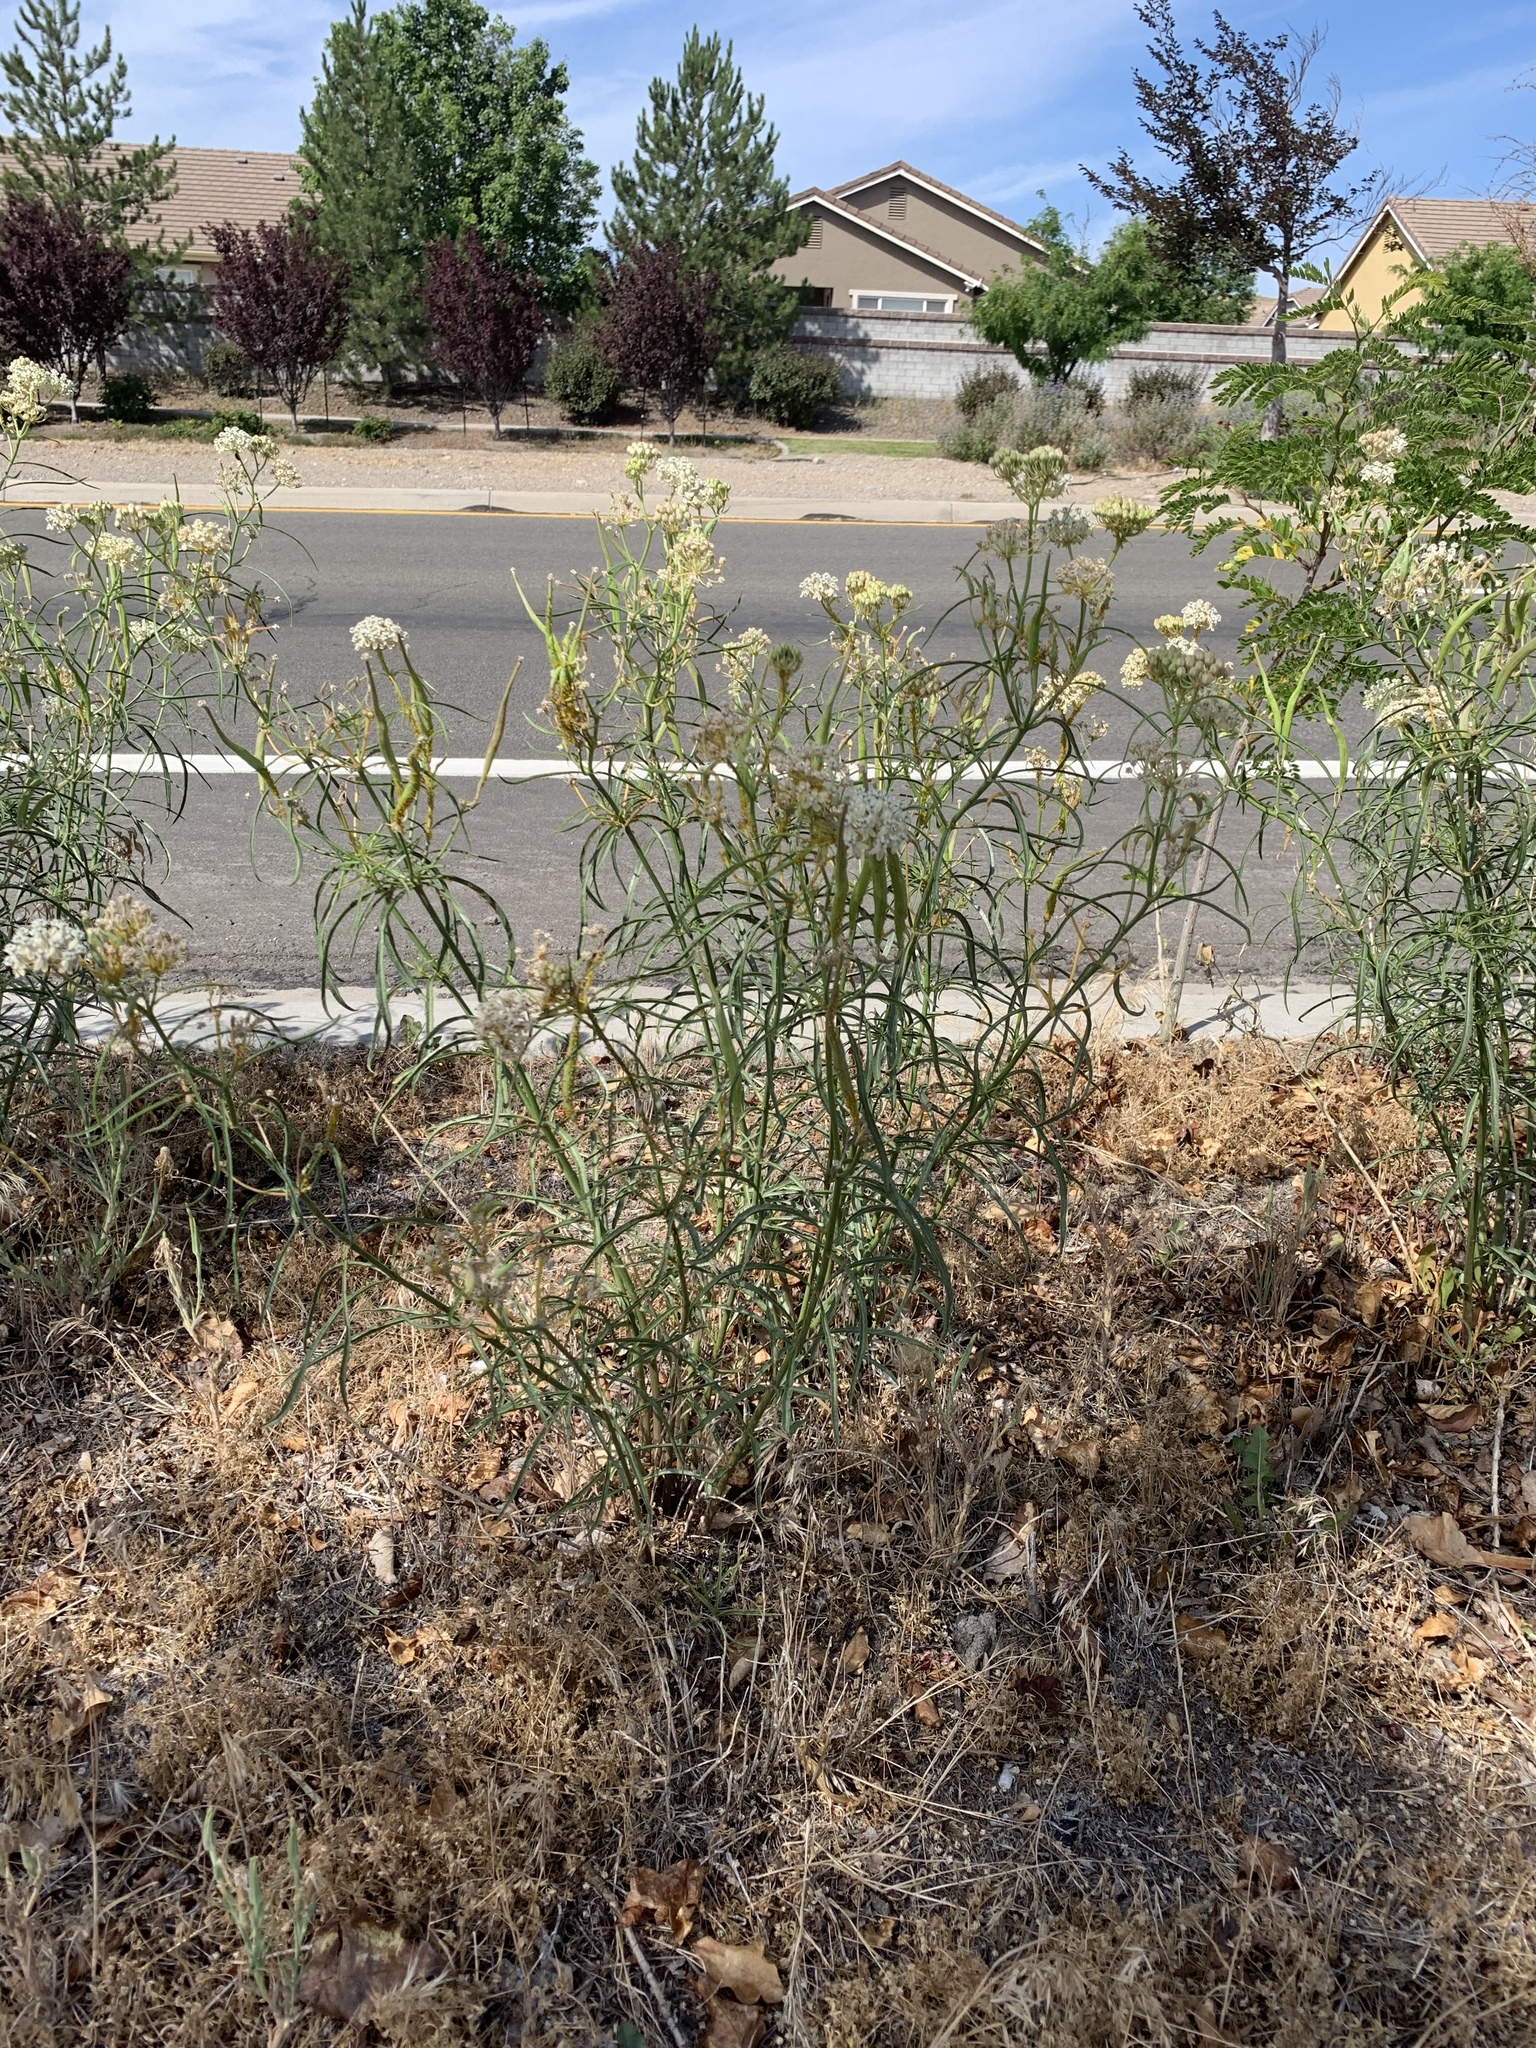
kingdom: Plantae
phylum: Tracheophyta
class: Magnoliopsida
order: Gentianales
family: Apocynaceae
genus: Asclepias
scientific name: Asclepias fascicularis
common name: Mexican milkweed
